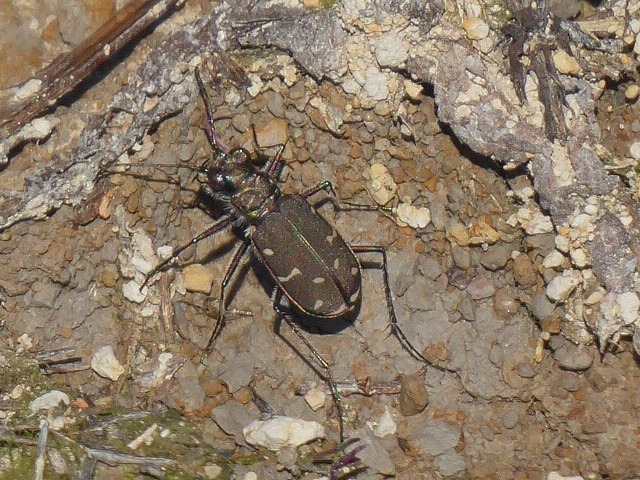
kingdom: Animalia
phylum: Arthropoda
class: Insecta
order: Coleoptera
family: Carabidae
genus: Cicindela
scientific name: Cicindela duodecimguttata
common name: Twelve-spotted tiger beetle
